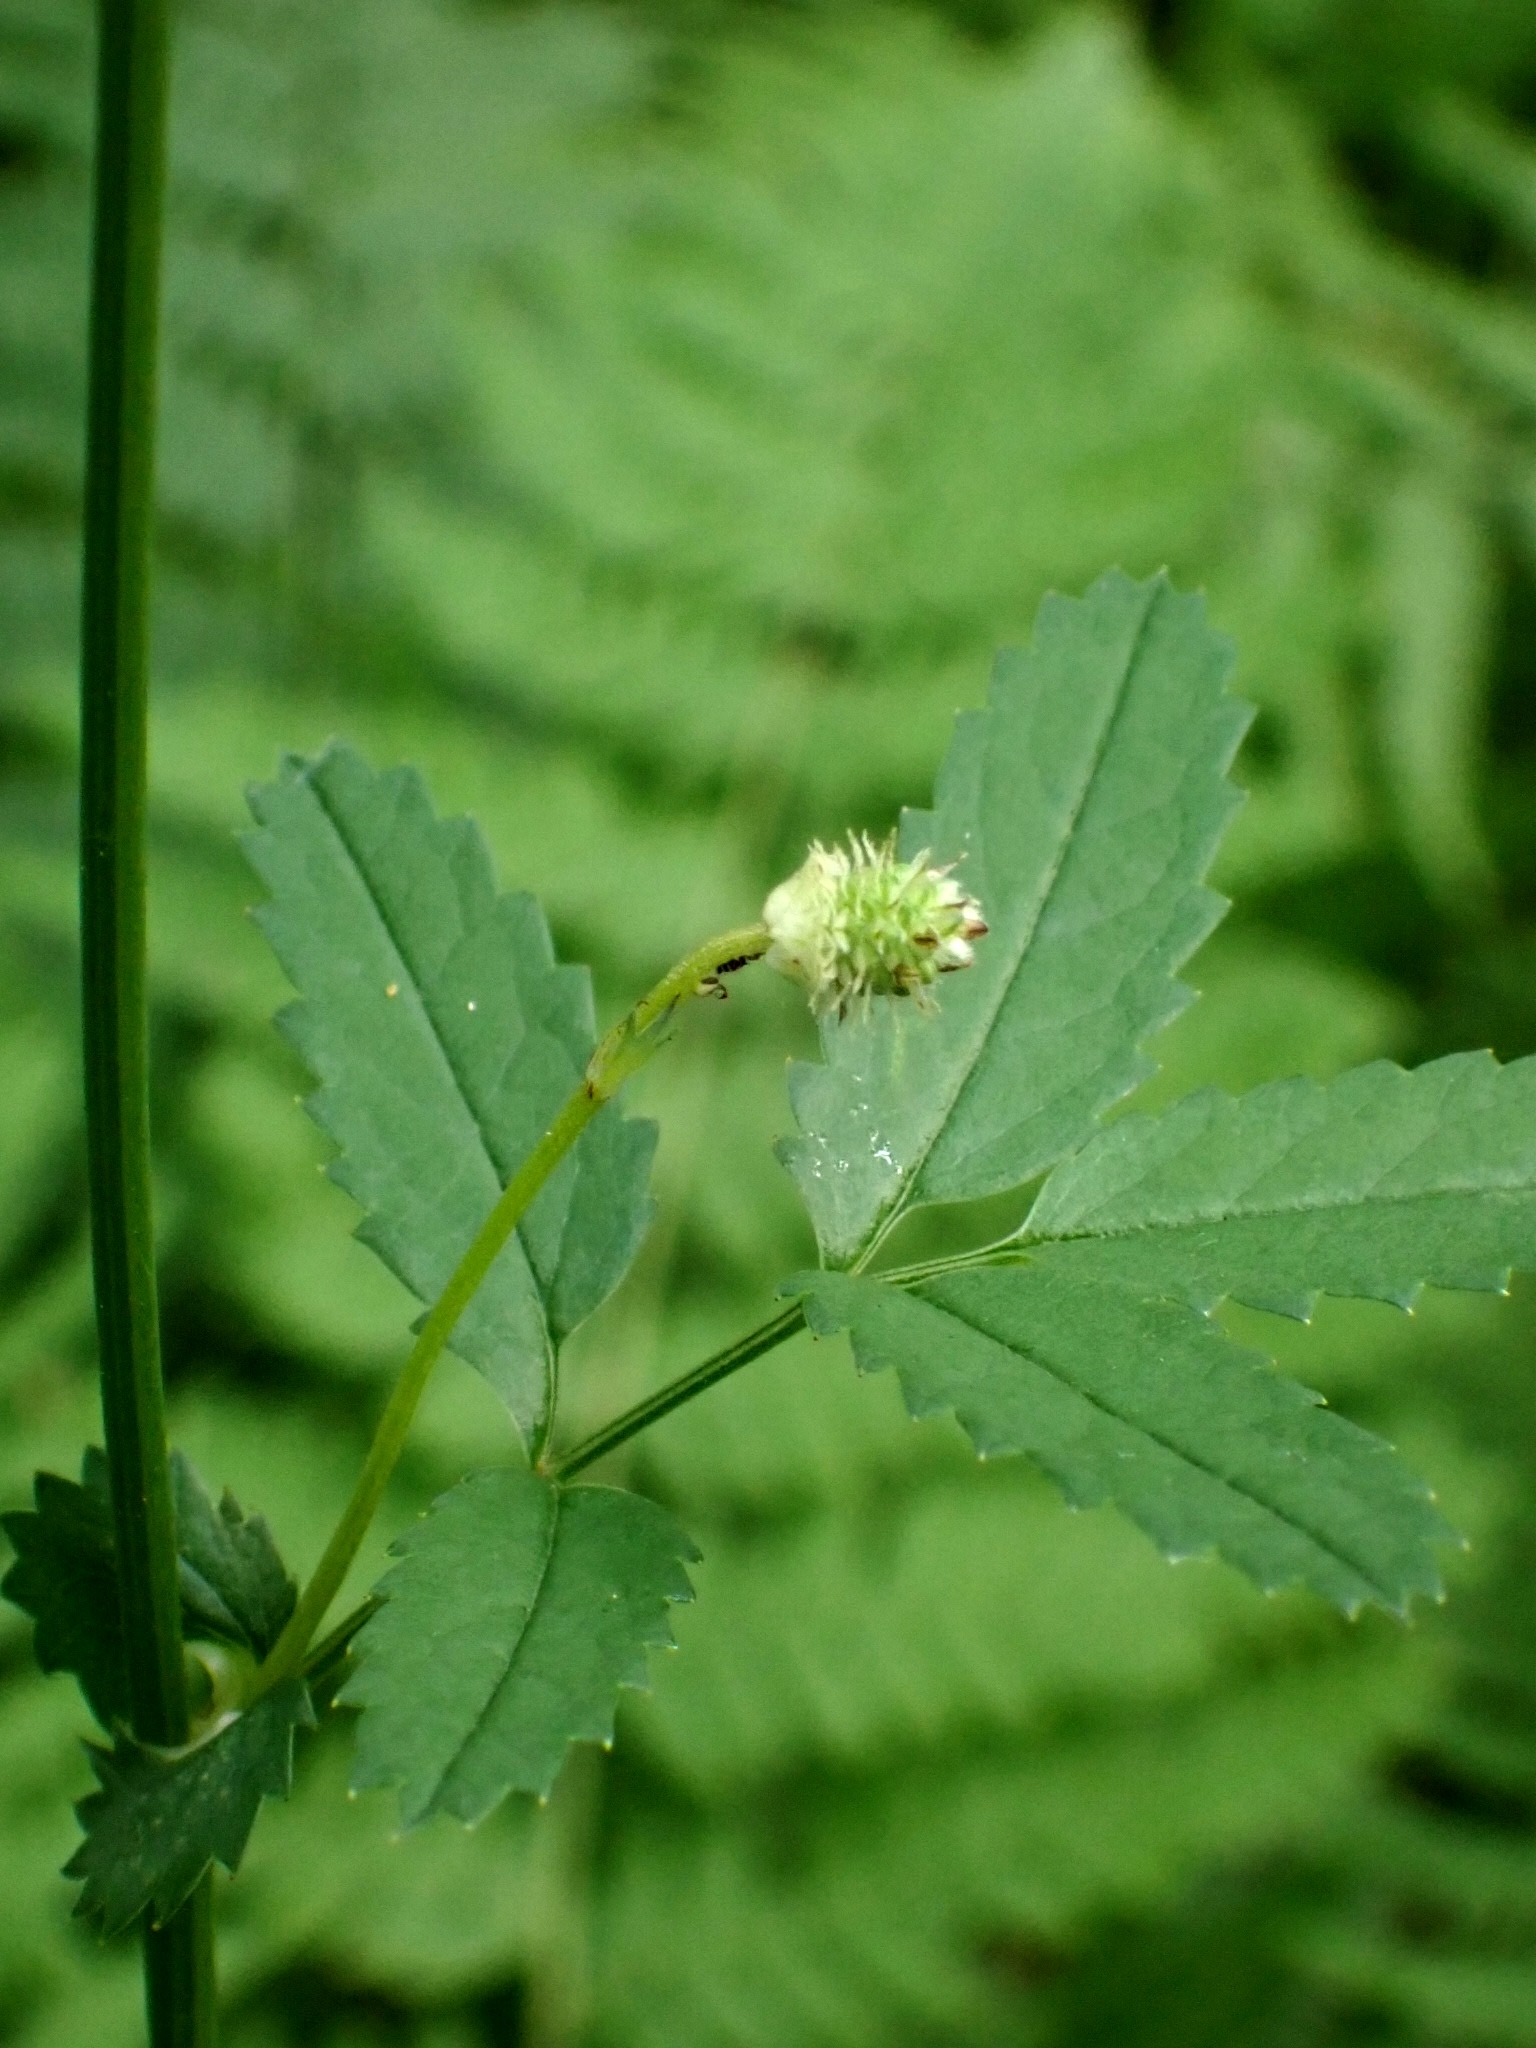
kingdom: Plantae
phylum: Tracheophyta
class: Magnoliopsida
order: Rosales
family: Rosaceae
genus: Sanguisorba
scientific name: Sanguisorba officinalis
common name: Great burnet
